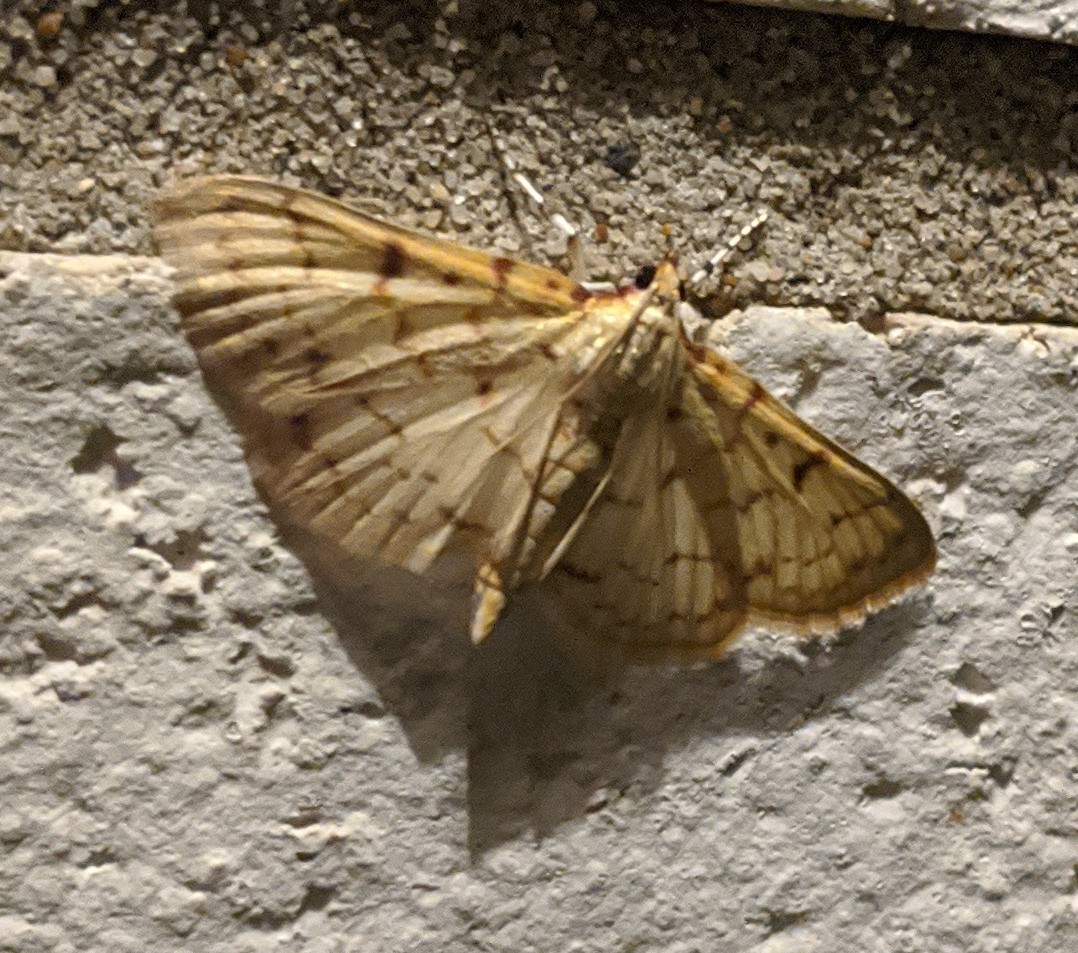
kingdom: Animalia
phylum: Arthropoda
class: Insecta
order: Lepidoptera
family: Crambidae
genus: Polygrammodes
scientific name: Polygrammodes flavidalis
